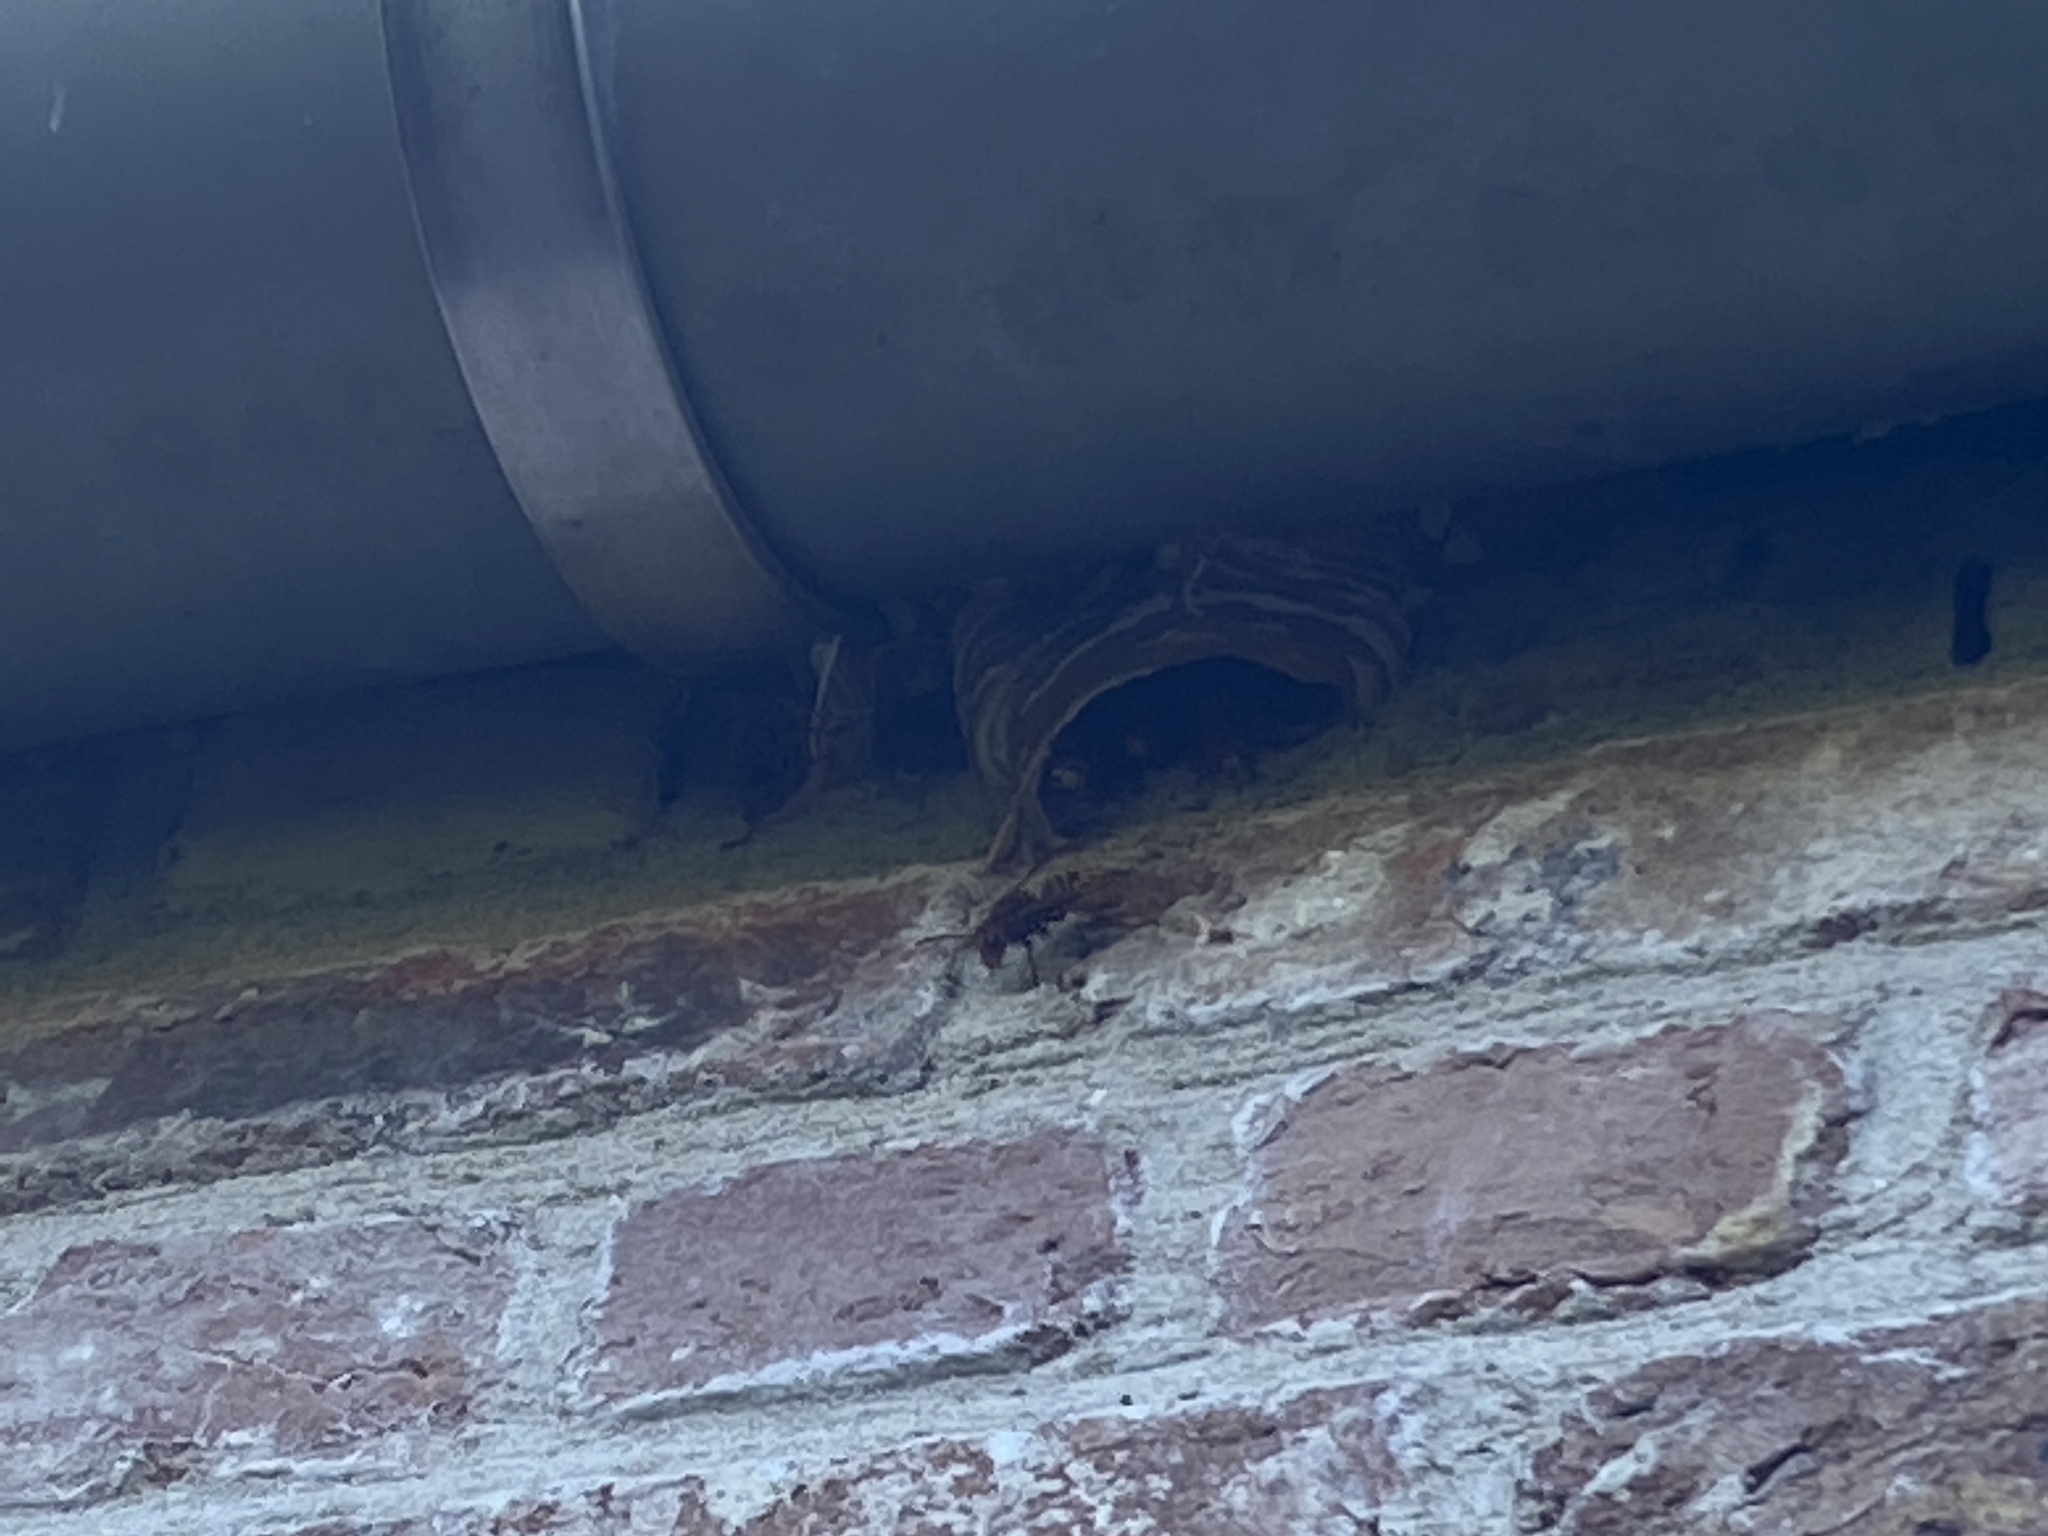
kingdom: Animalia
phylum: Arthropoda
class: Insecta
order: Hymenoptera
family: Vespidae
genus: Vespa
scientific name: Vespa crabro
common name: Hornet
